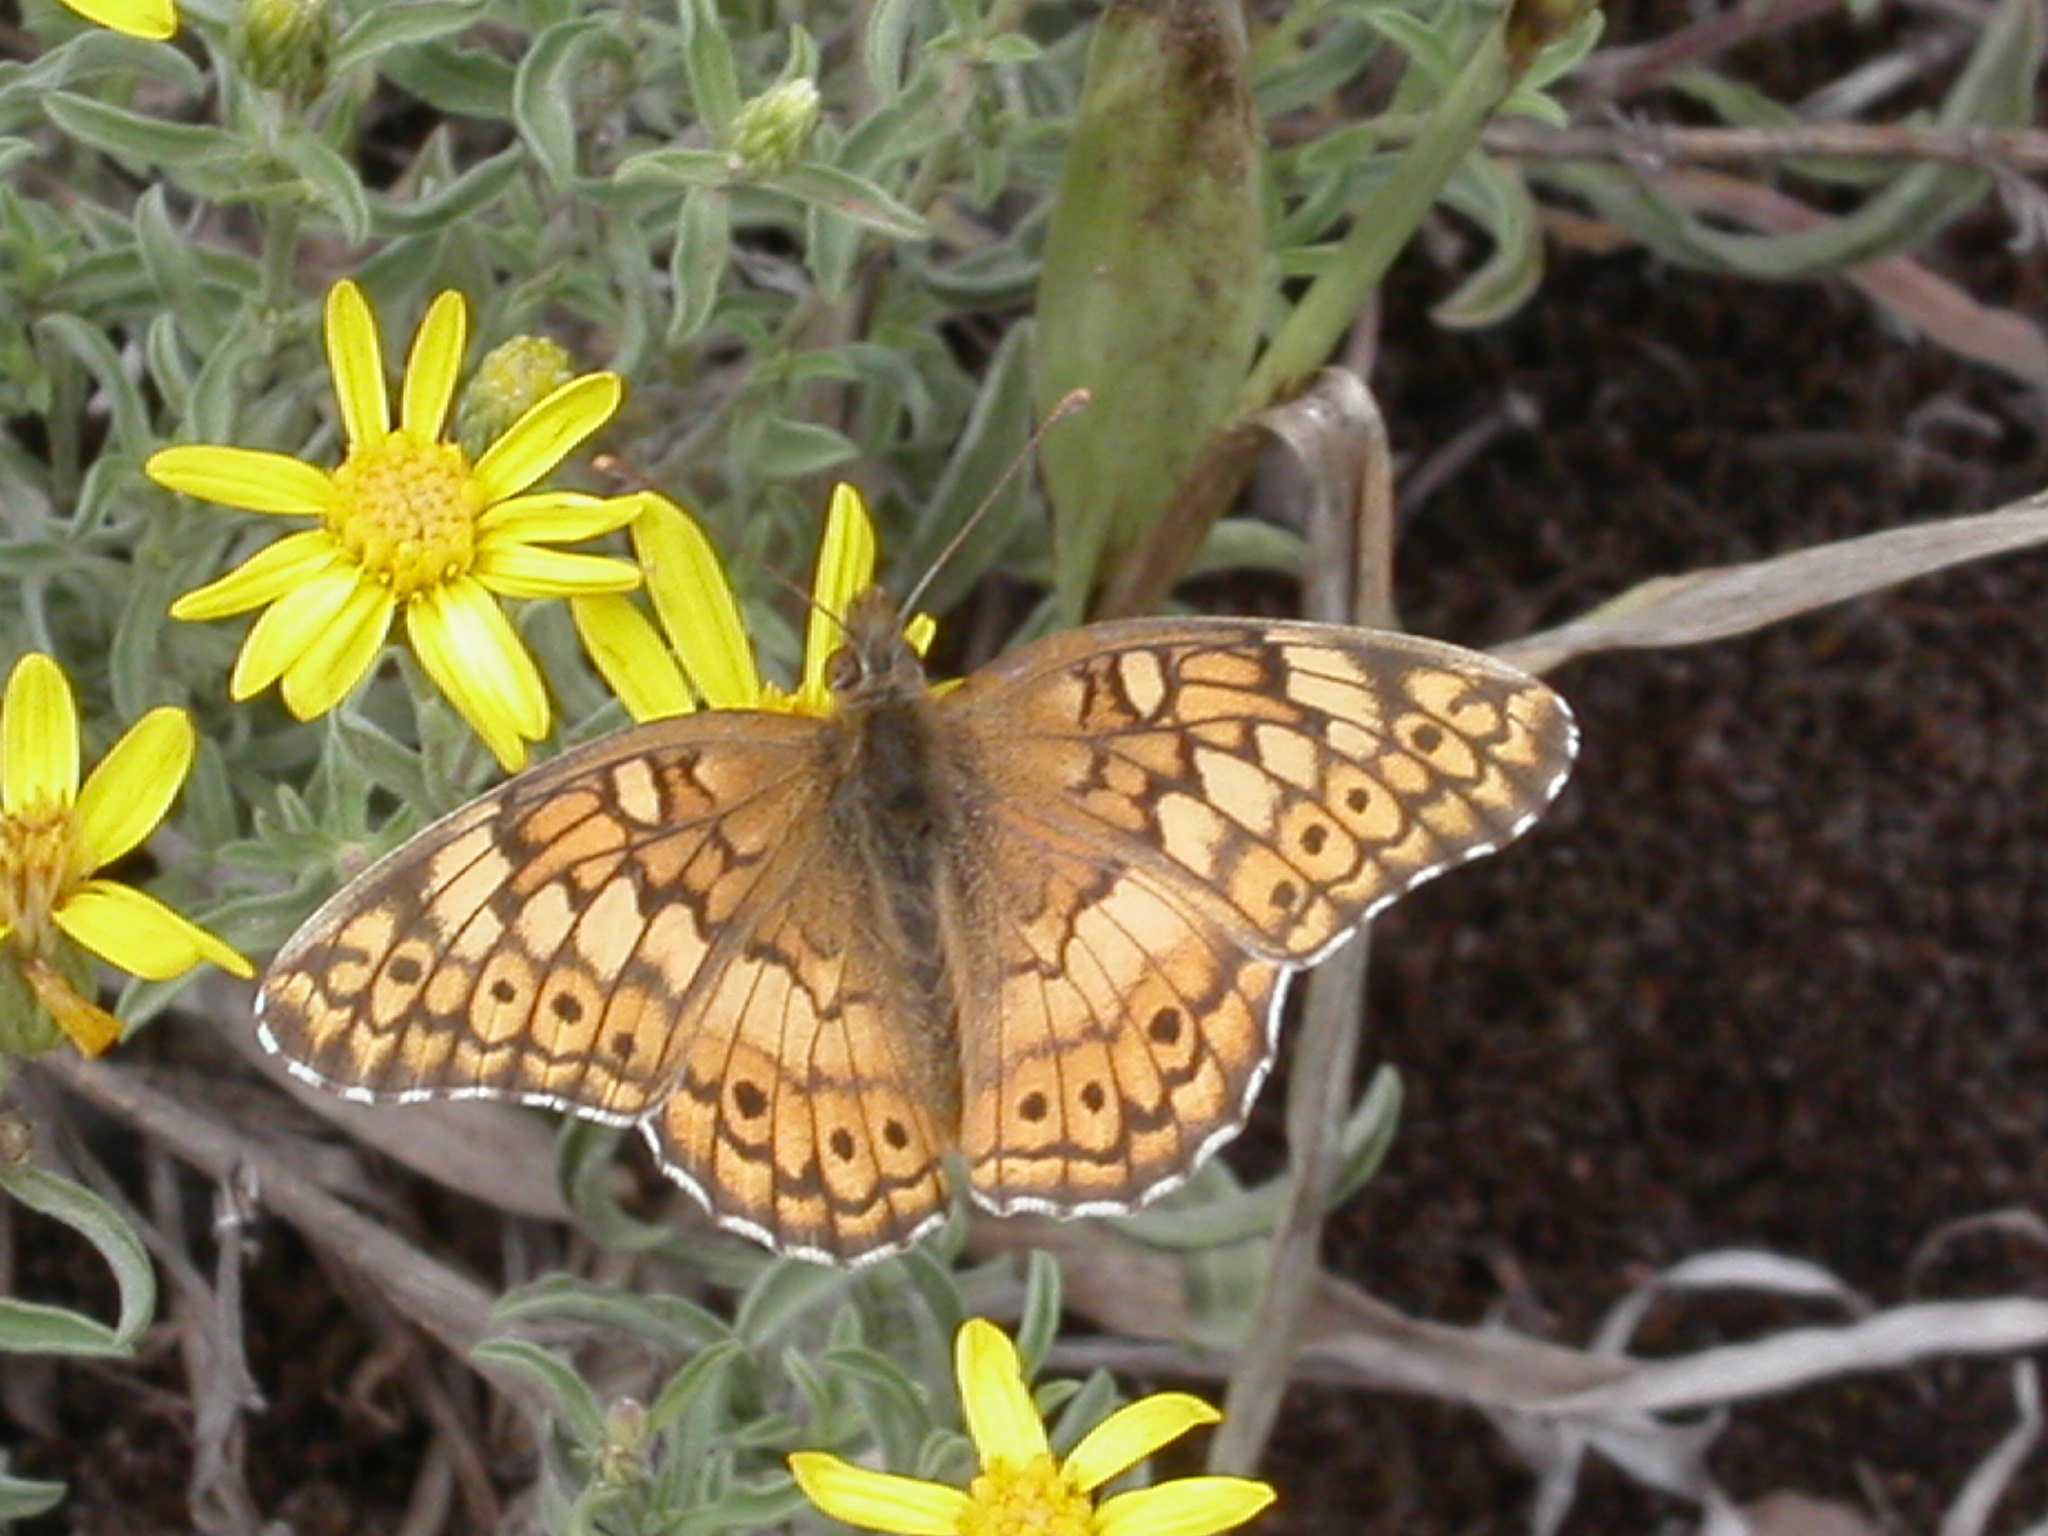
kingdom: Animalia
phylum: Arthropoda
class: Insecta
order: Lepidoptera
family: Nymphalidae
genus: Euptoieta
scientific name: Euptoieta claudia
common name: Variegated fritillary
